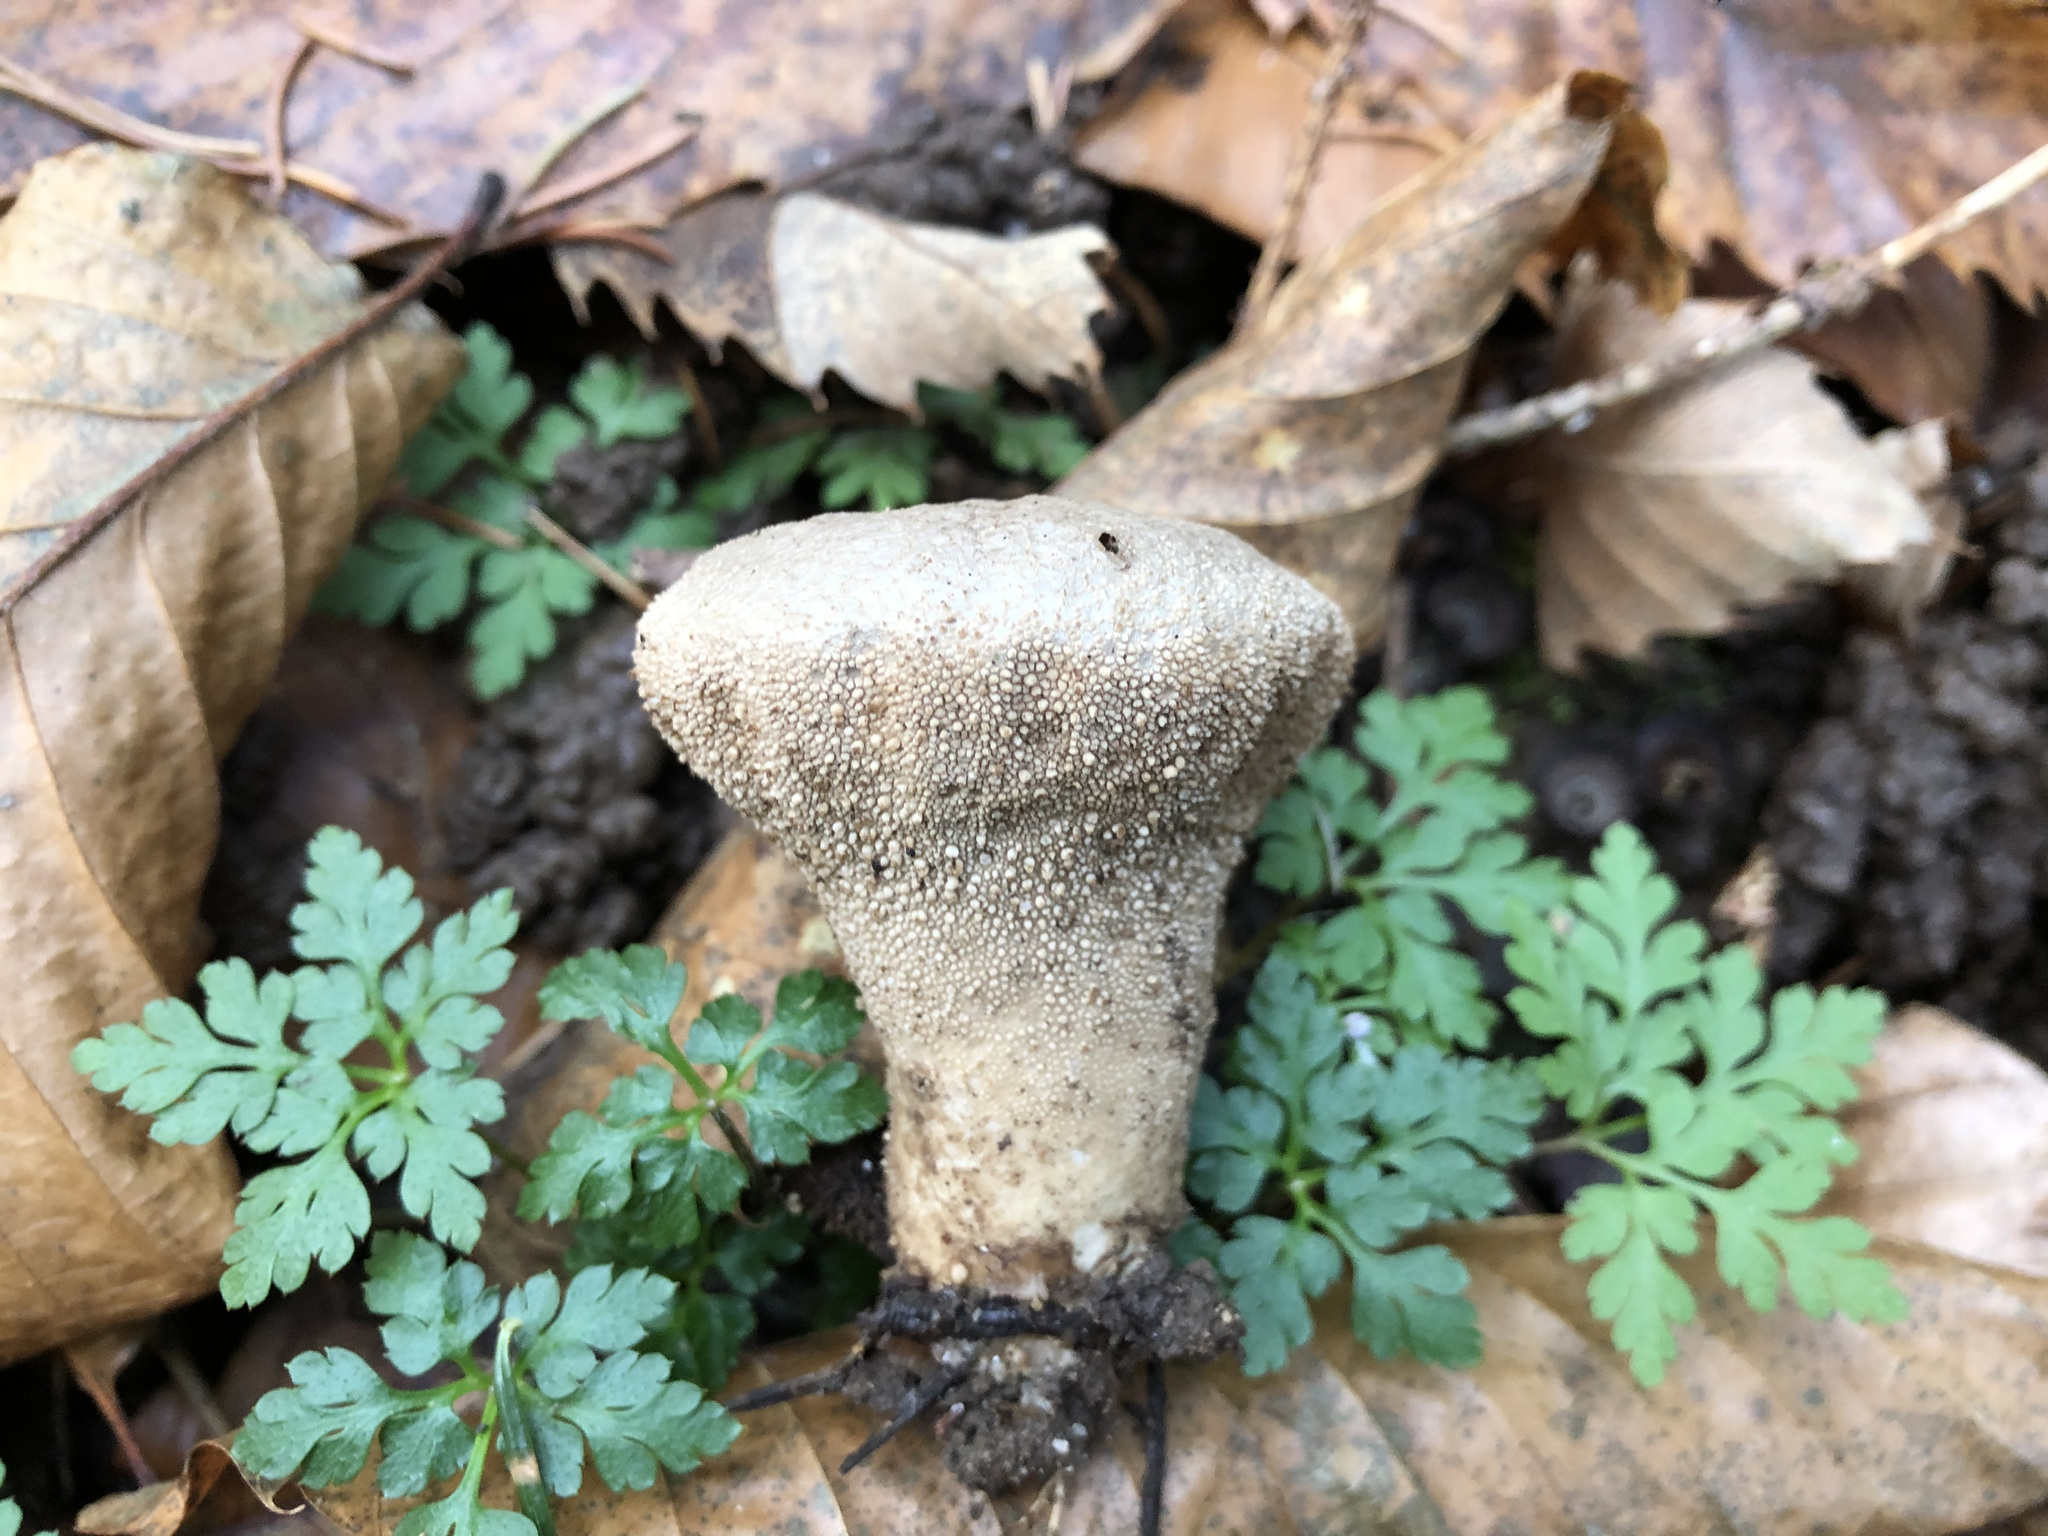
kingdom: Fungi
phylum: Basidiomycota
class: Agaricomycetes
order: Agaricales
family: Lycoperdaceae
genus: Lycoperdon
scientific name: Lycoperdon perlatum
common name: Common puffball
